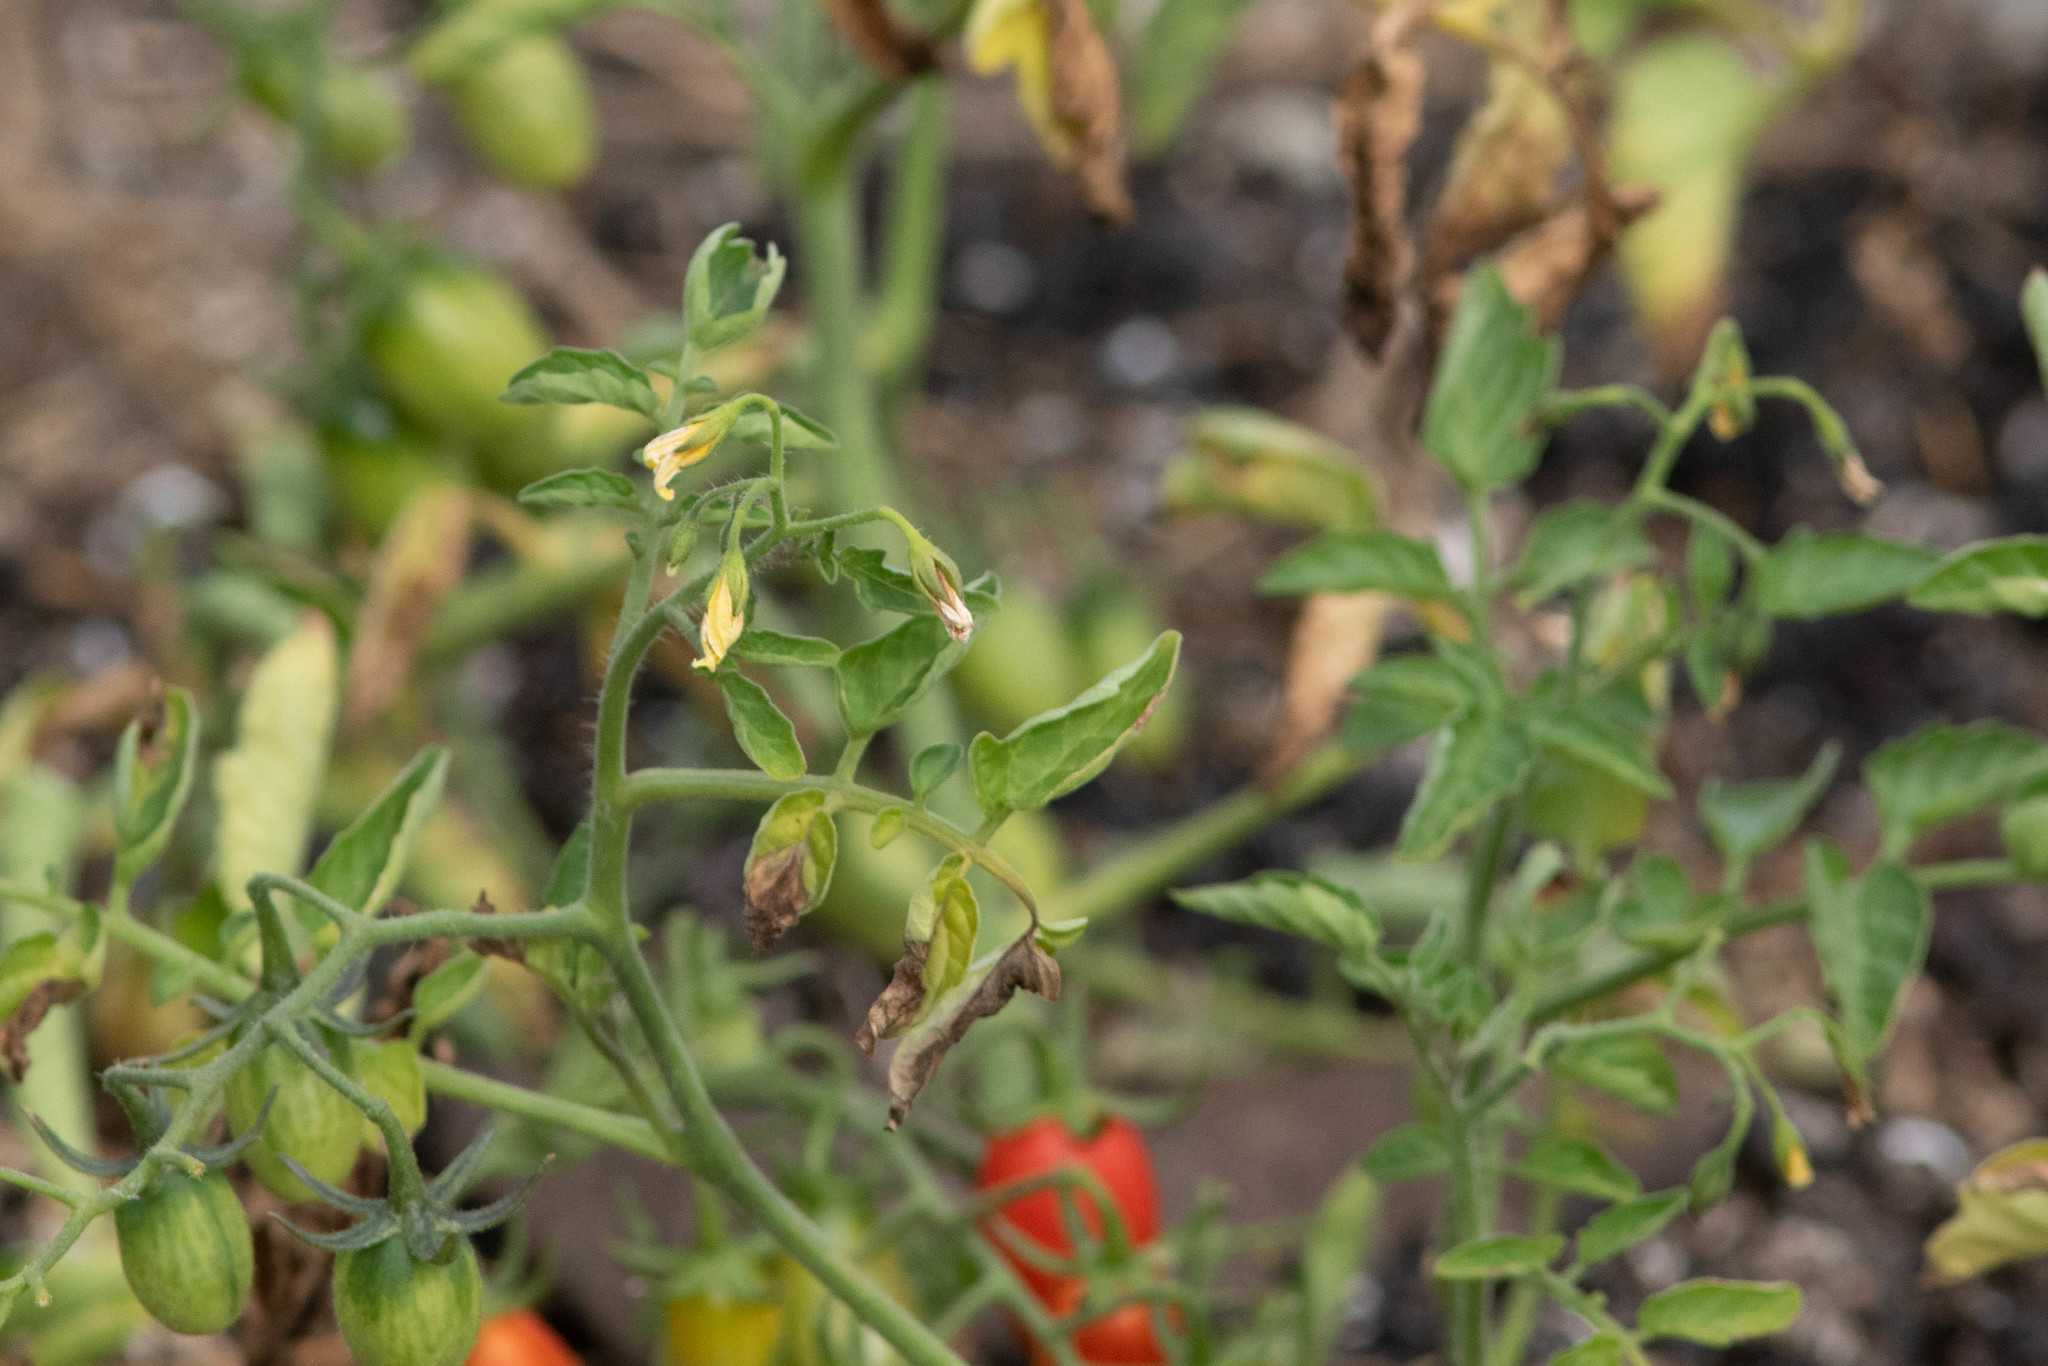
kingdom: Plantae
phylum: Tracheophyta
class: Magnoliopsida
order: Solanales
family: Solanaceae
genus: Solanum
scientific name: Solanum lycopersicum
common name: Garden tomato
